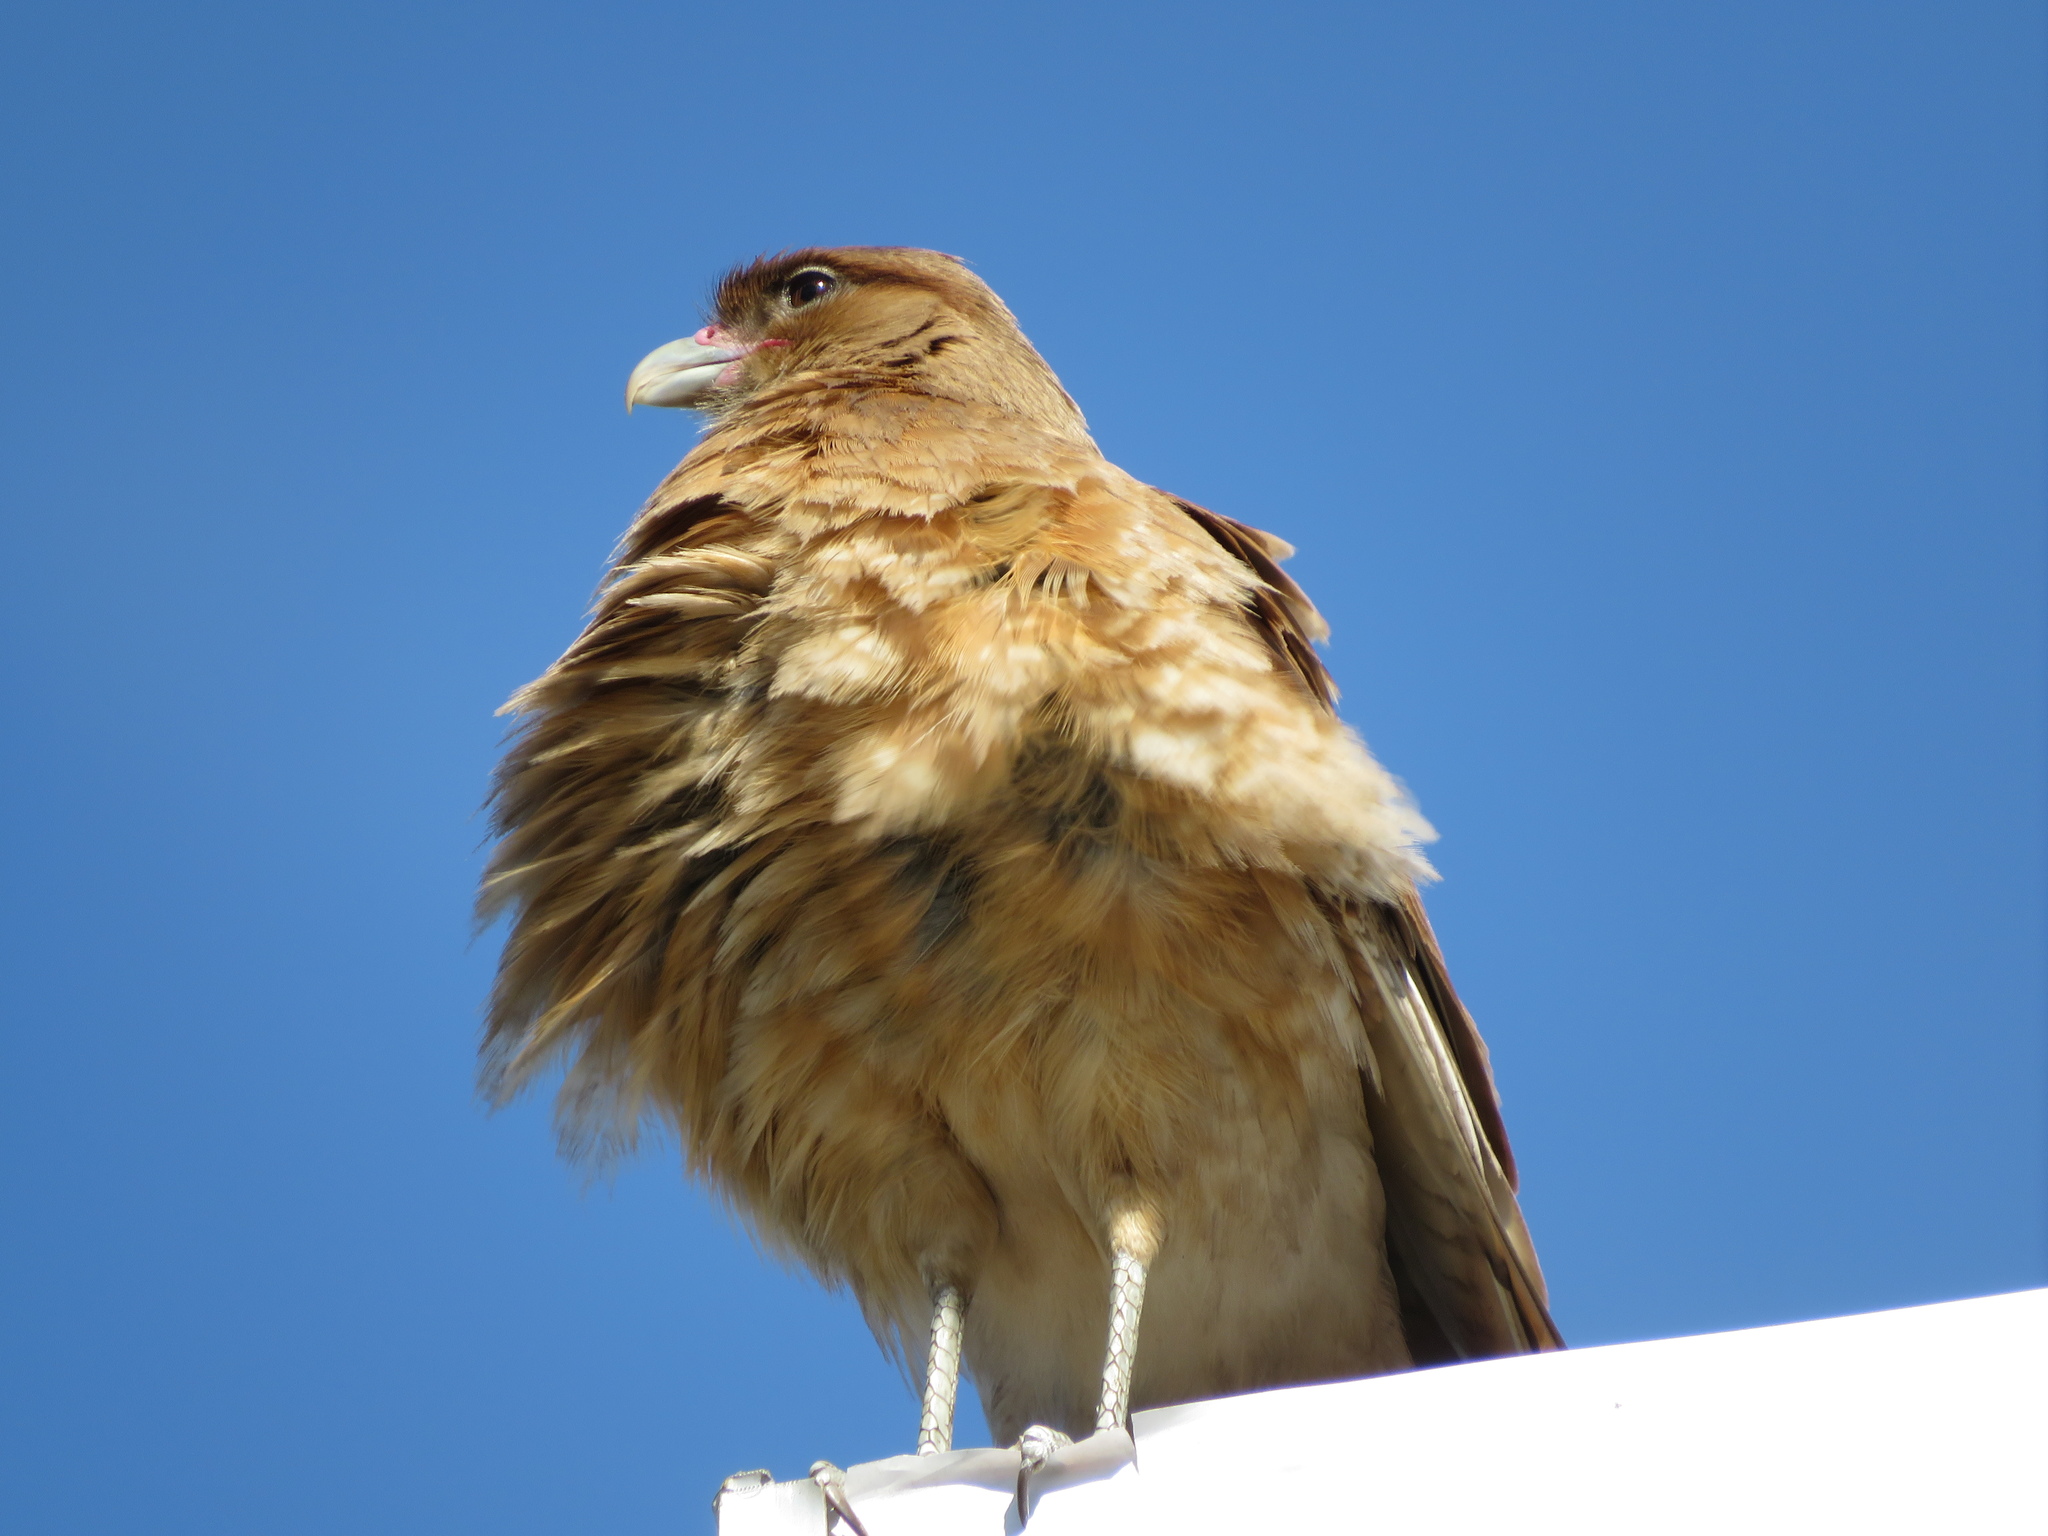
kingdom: Animalia
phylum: Chordata
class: Aves
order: Falconiformes
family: Falconidae
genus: Daptrius
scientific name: Daptrius
